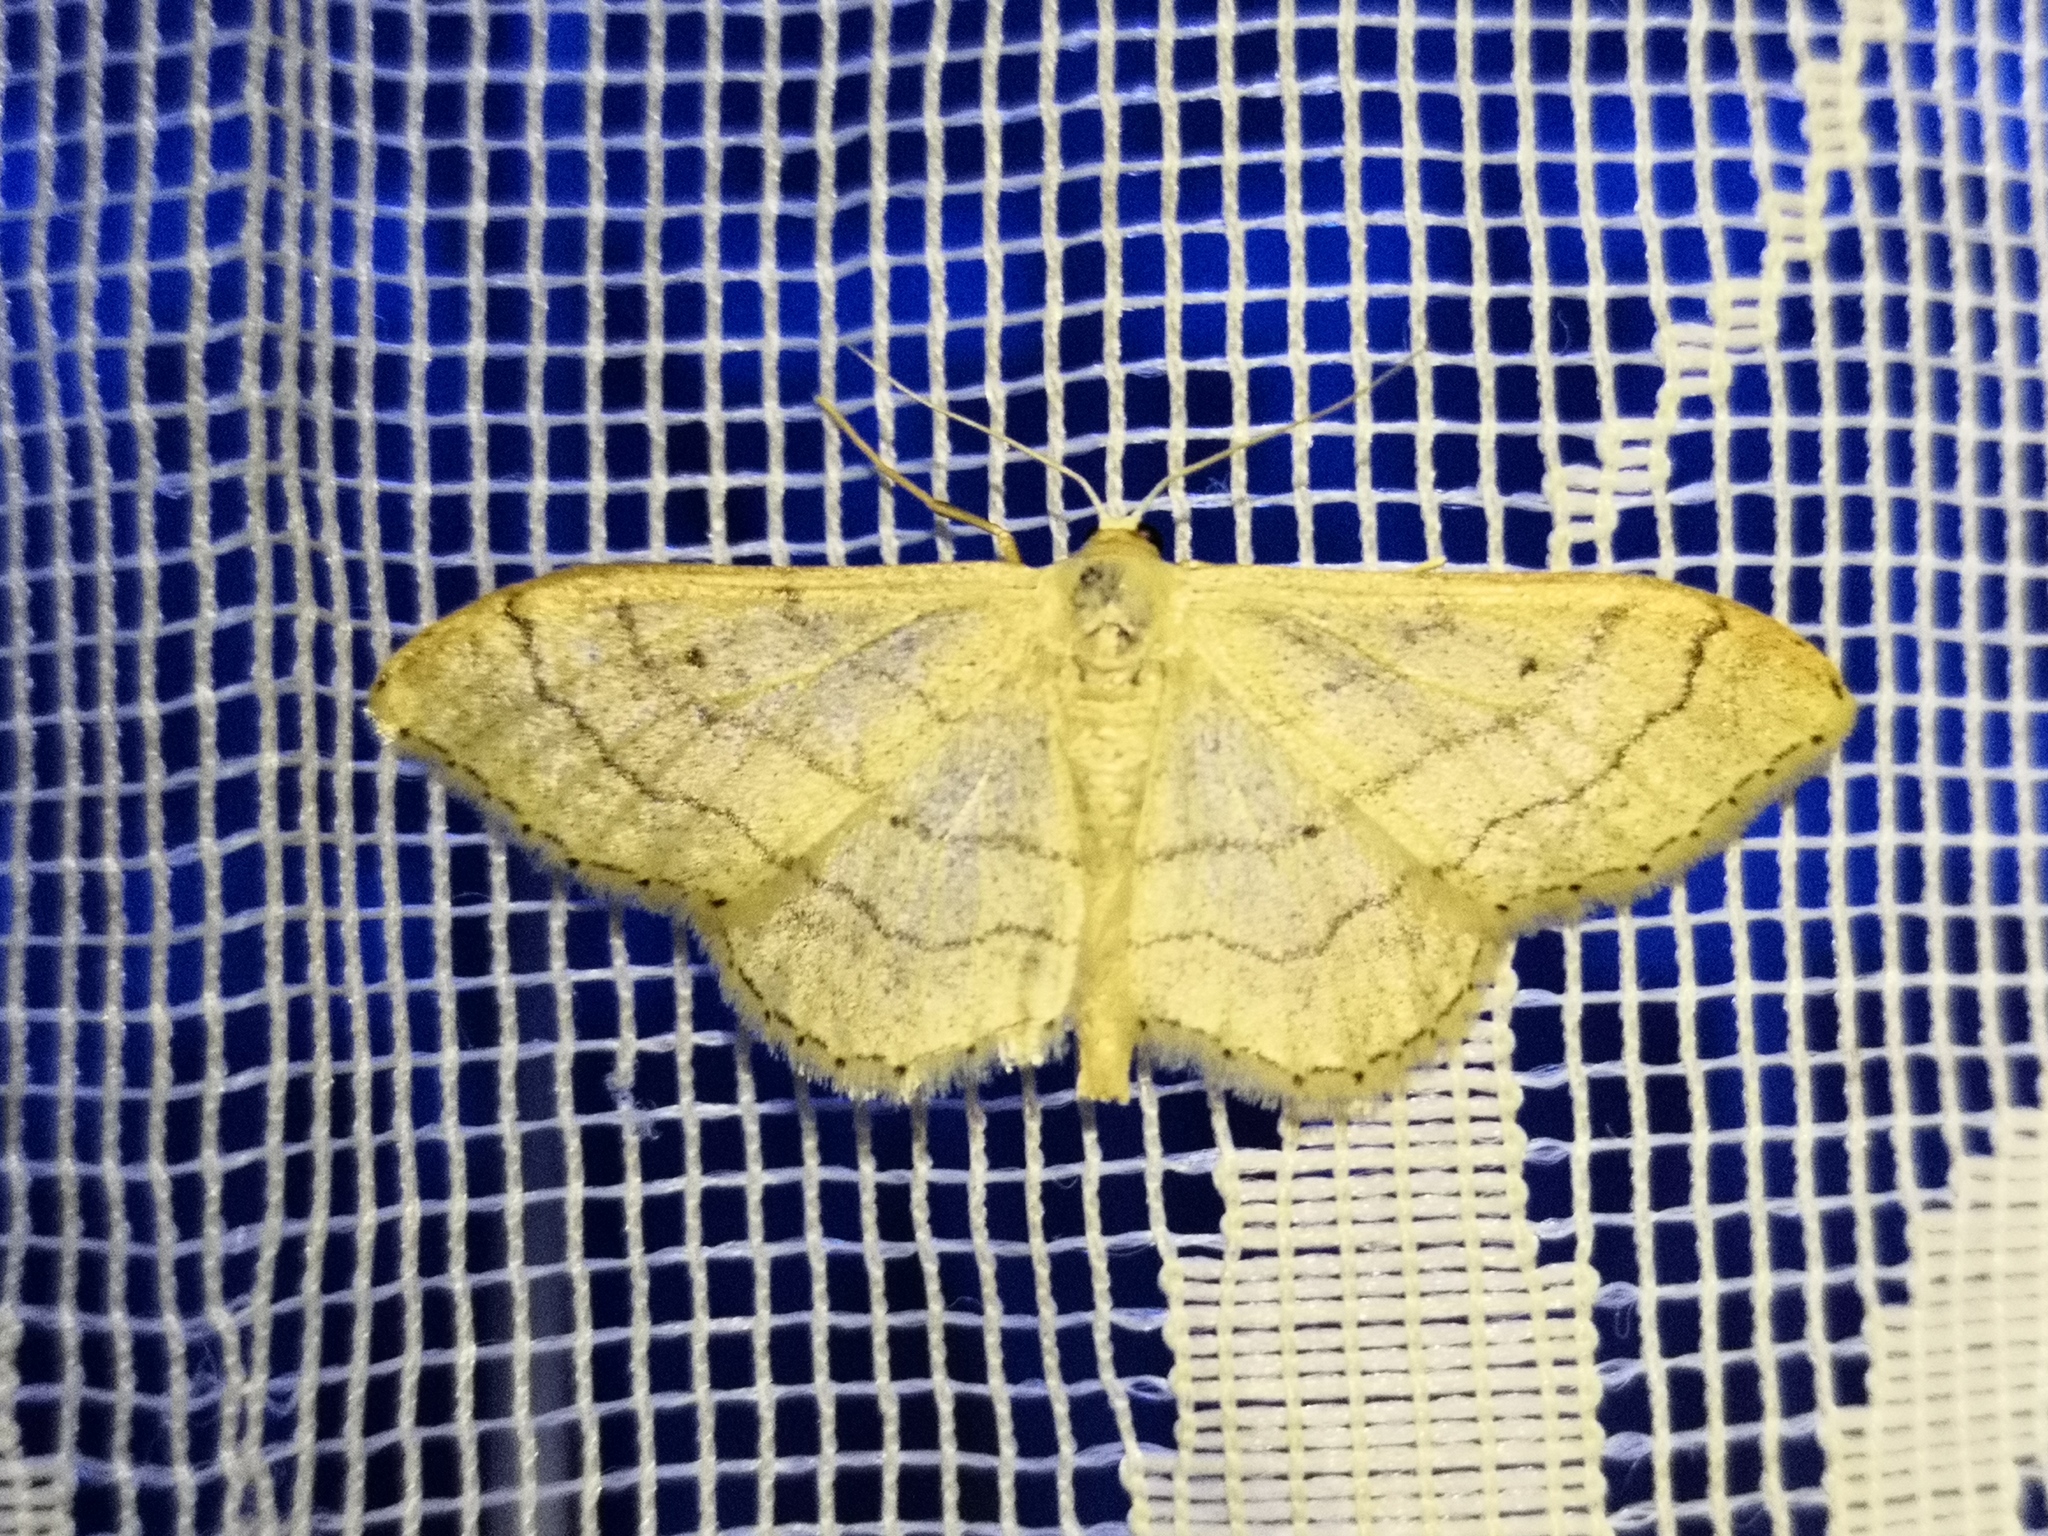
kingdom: Animalia
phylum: Arthropoda
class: Insecta
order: Lepidoptera
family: Geometridae
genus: Idaea
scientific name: Idaea aversata
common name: Riband wave
